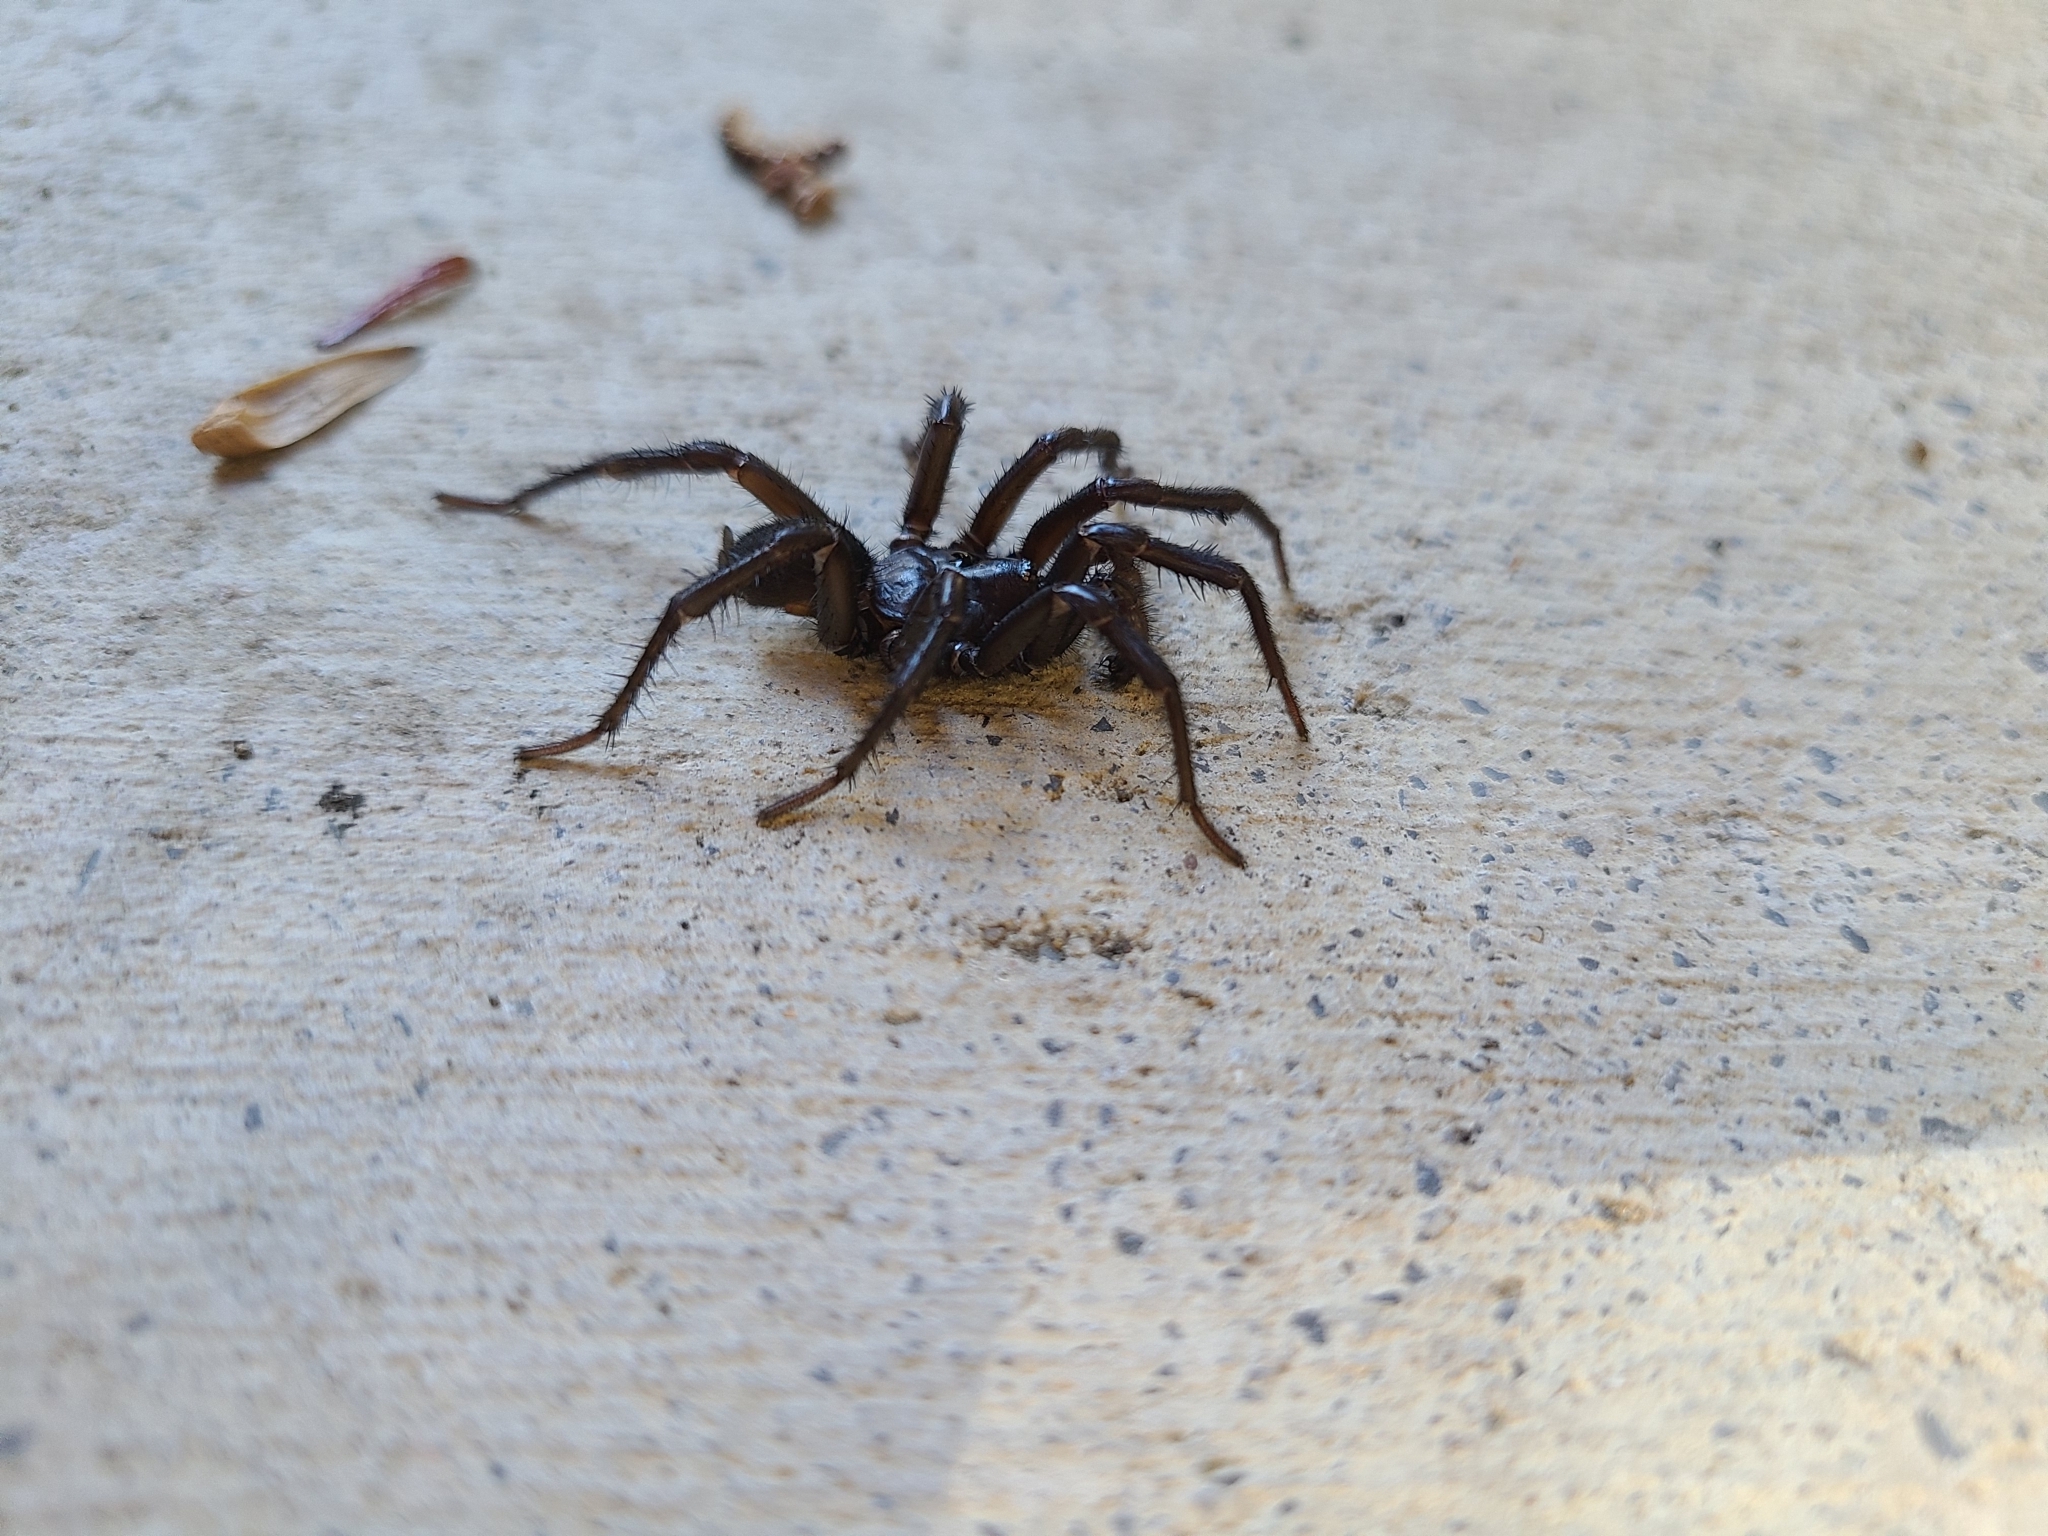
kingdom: Animalia
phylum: Arthropoda
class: Arachnida
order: Araneae
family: Antrodiaetidae
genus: Antrodiaetus
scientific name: Antrodiaetus unicolor
